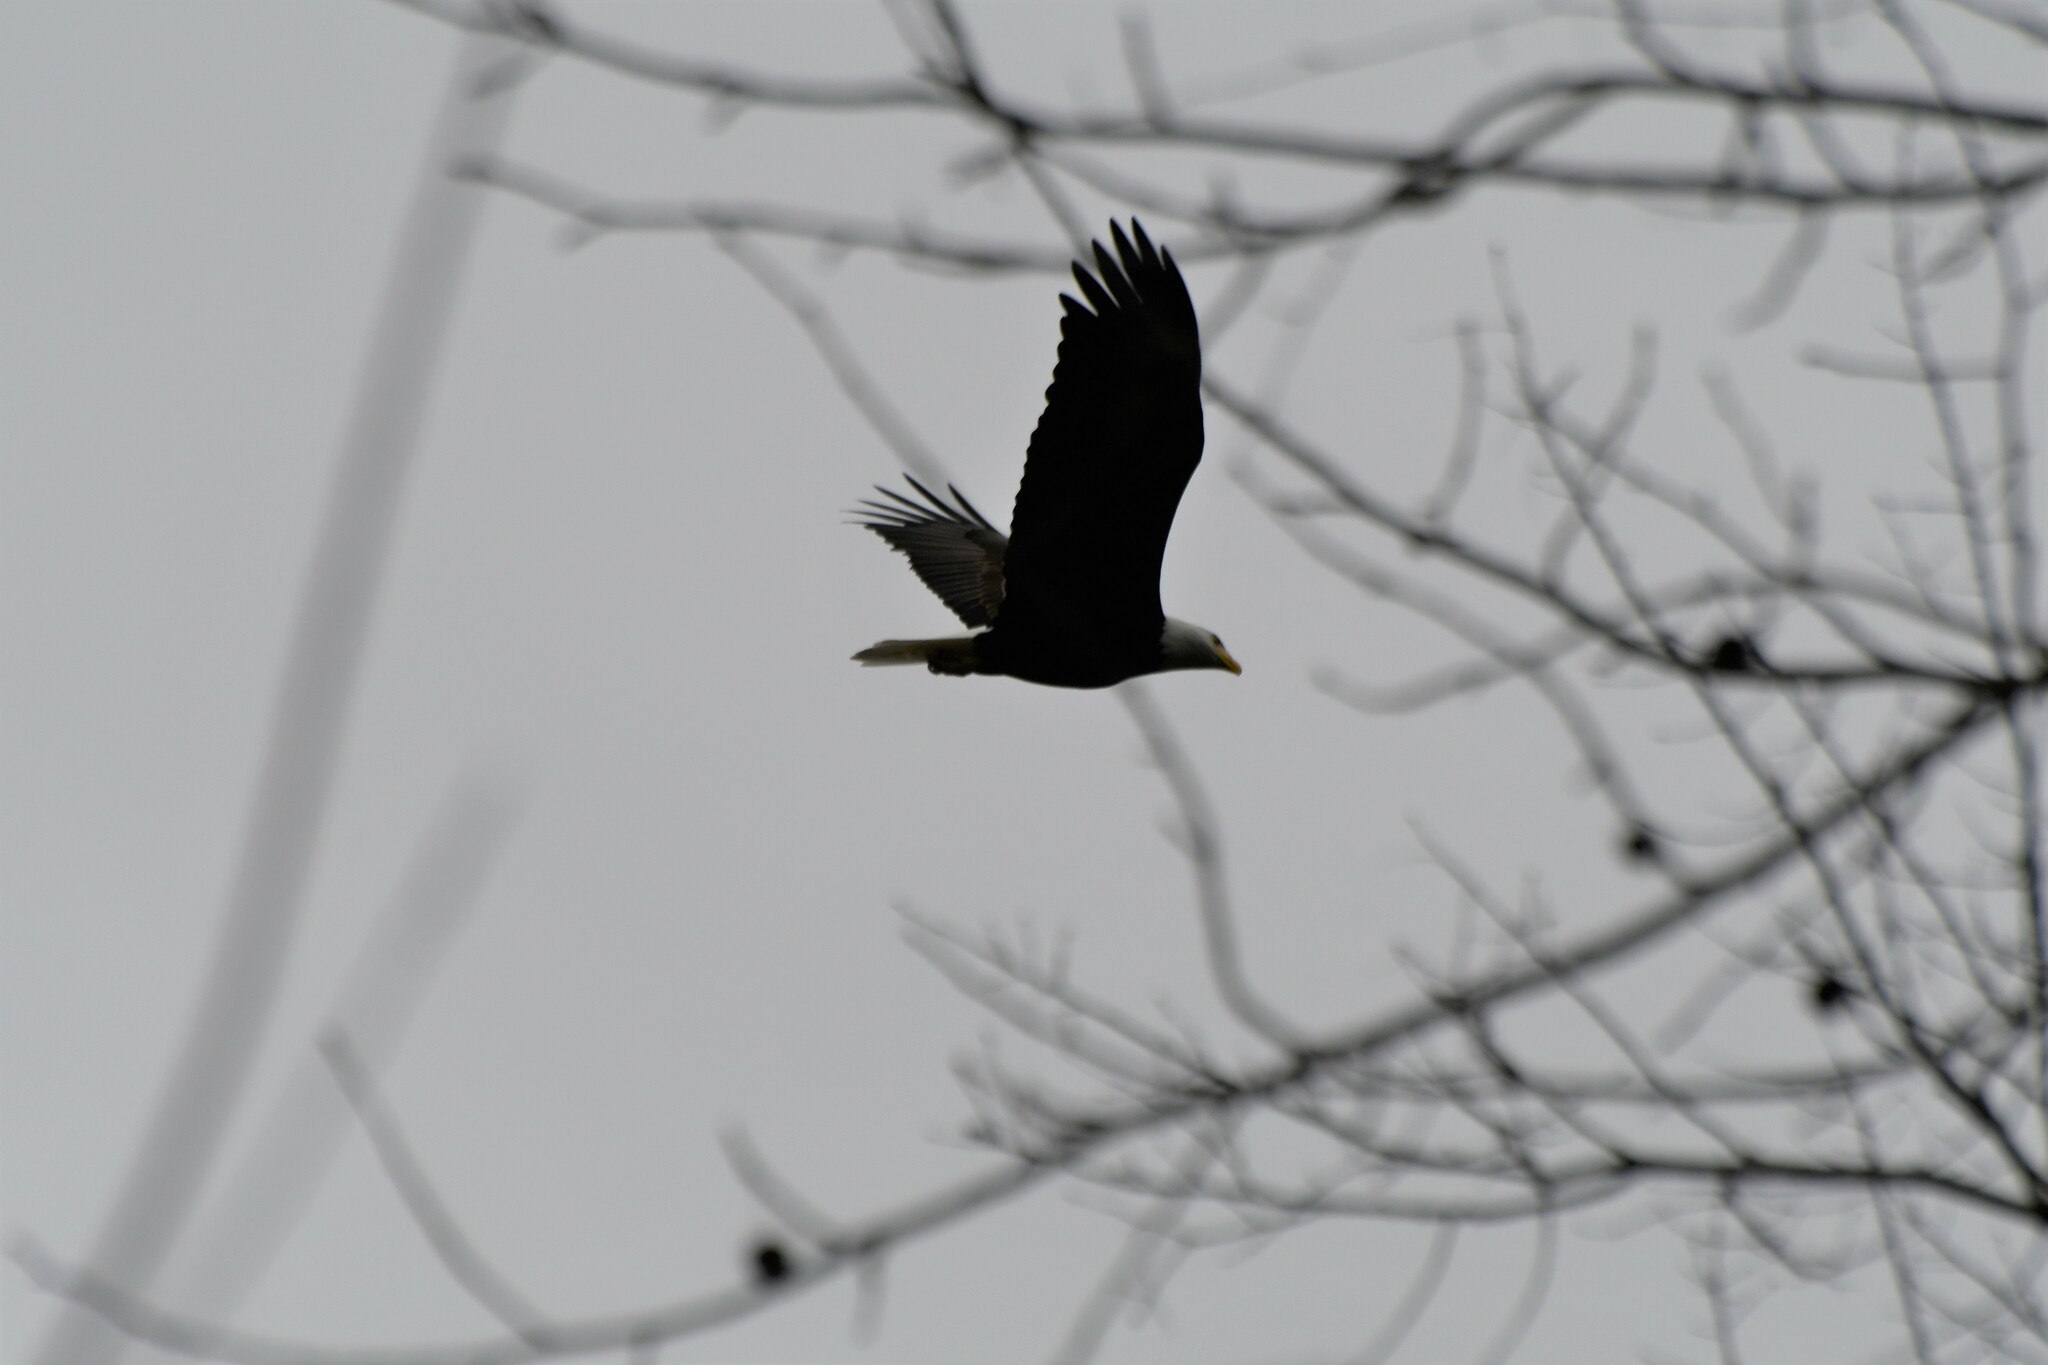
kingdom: Animalia
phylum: Chordata
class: Aves
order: Accipitriformes
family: Accipitridae
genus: Haliaeetus
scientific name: Haliaeetus leucocephalus
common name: Bald eagle
